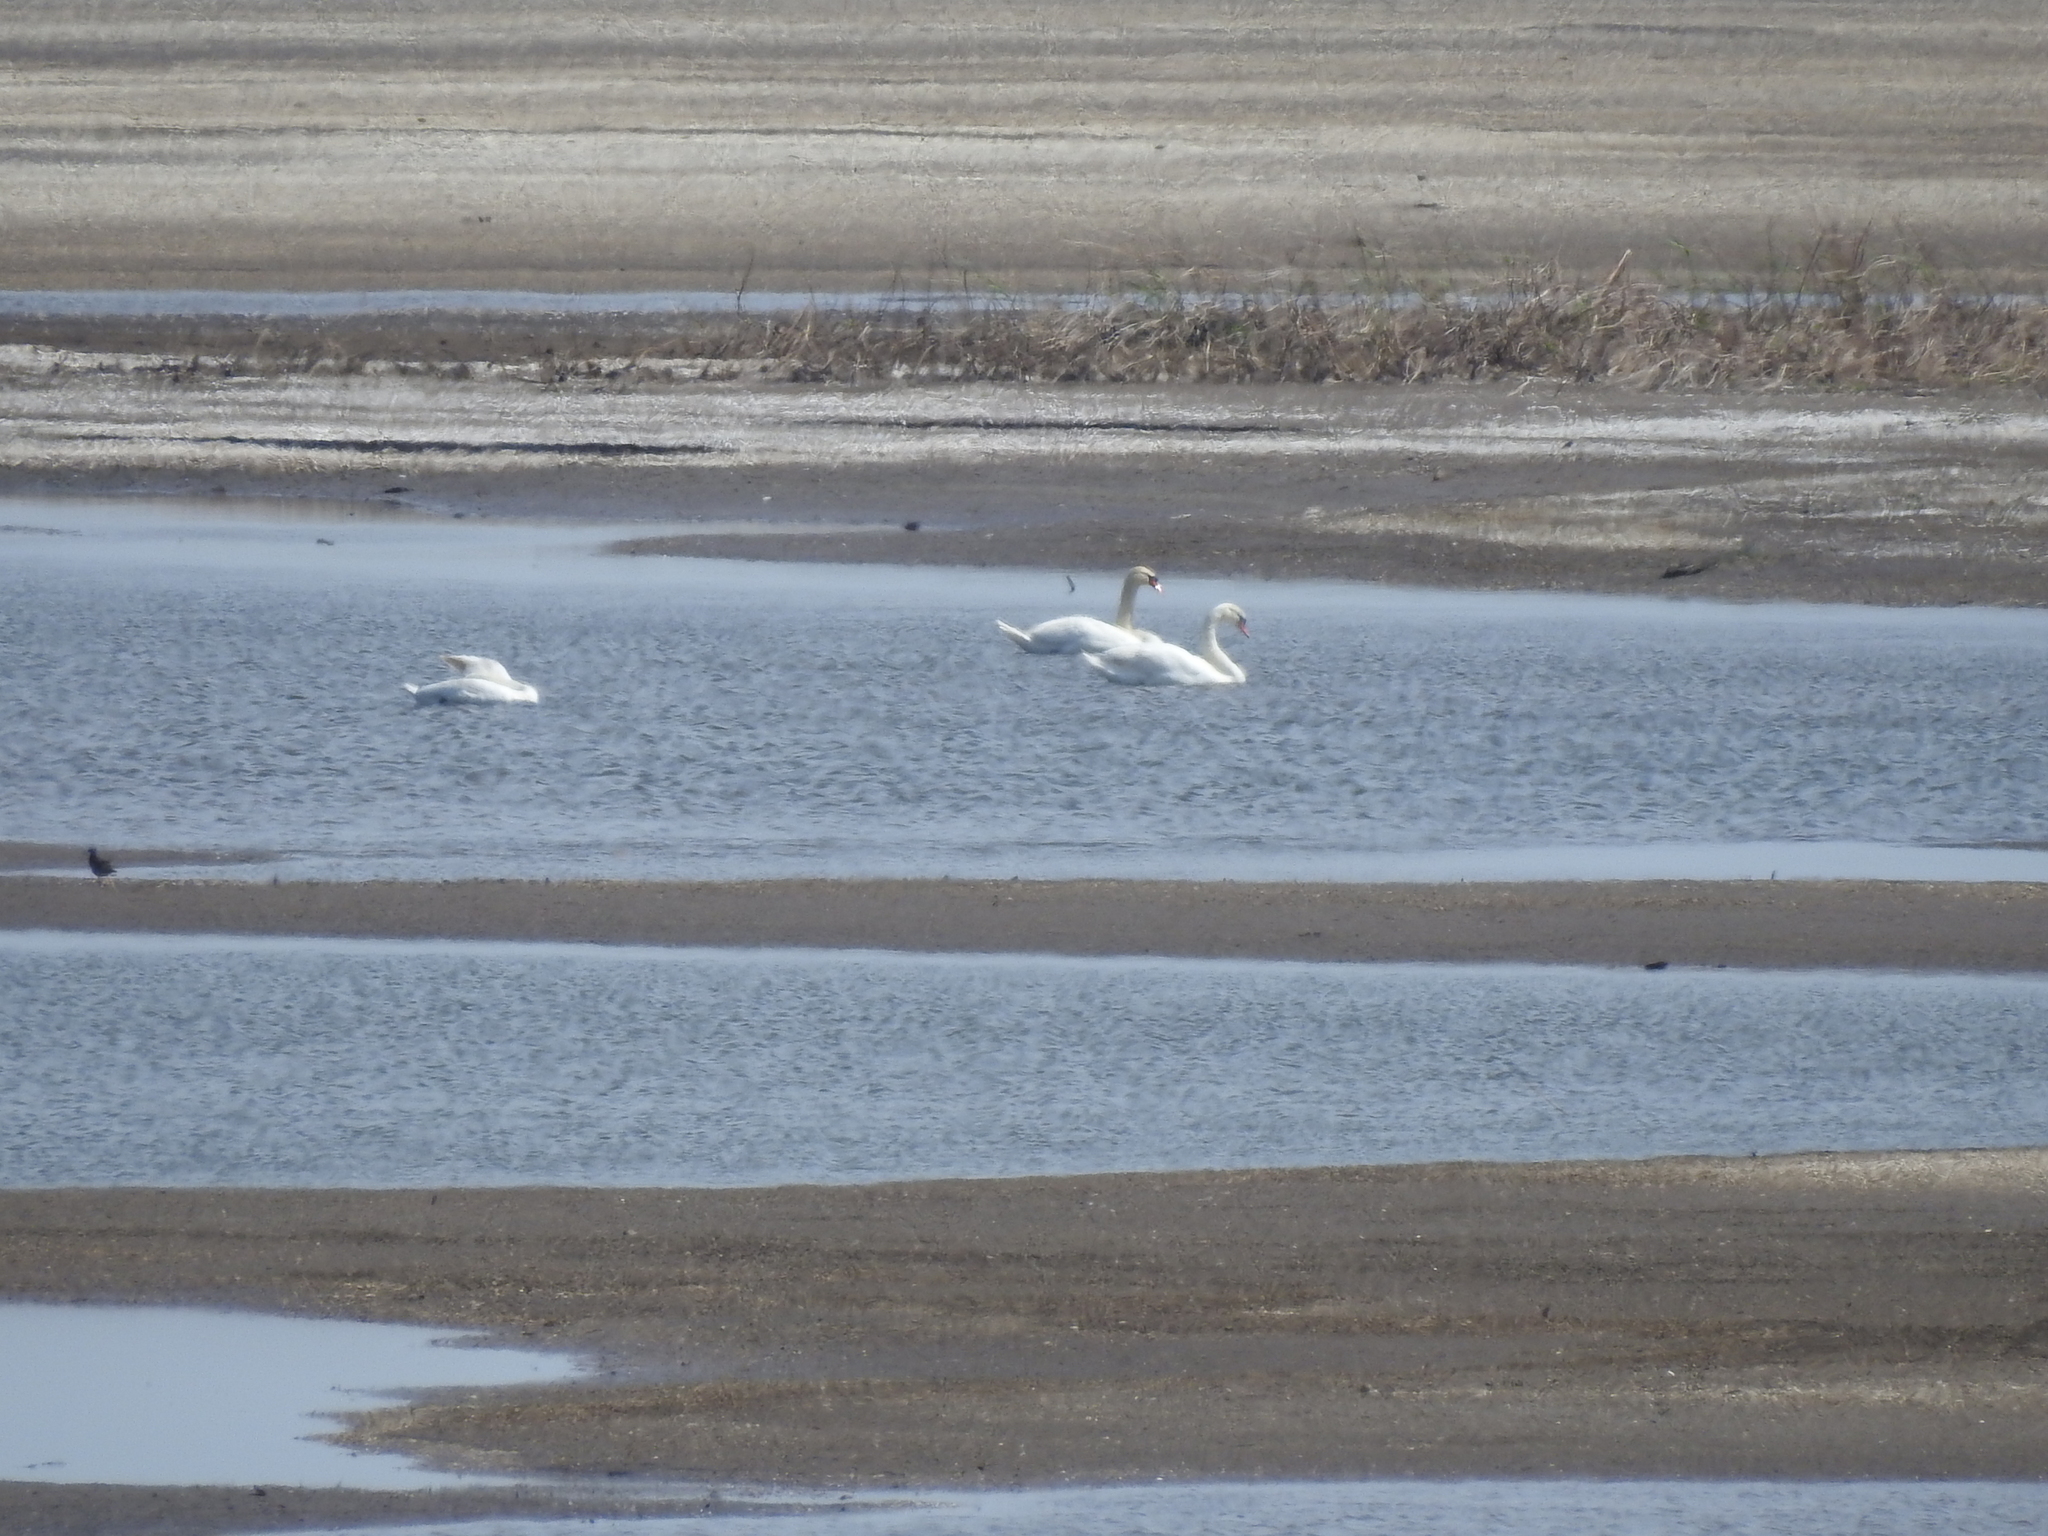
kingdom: Animalia
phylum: Chordata
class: Aves
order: Anseriformes
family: Anatidae
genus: Cygnus
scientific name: Cygnus olor
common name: Mute swan
